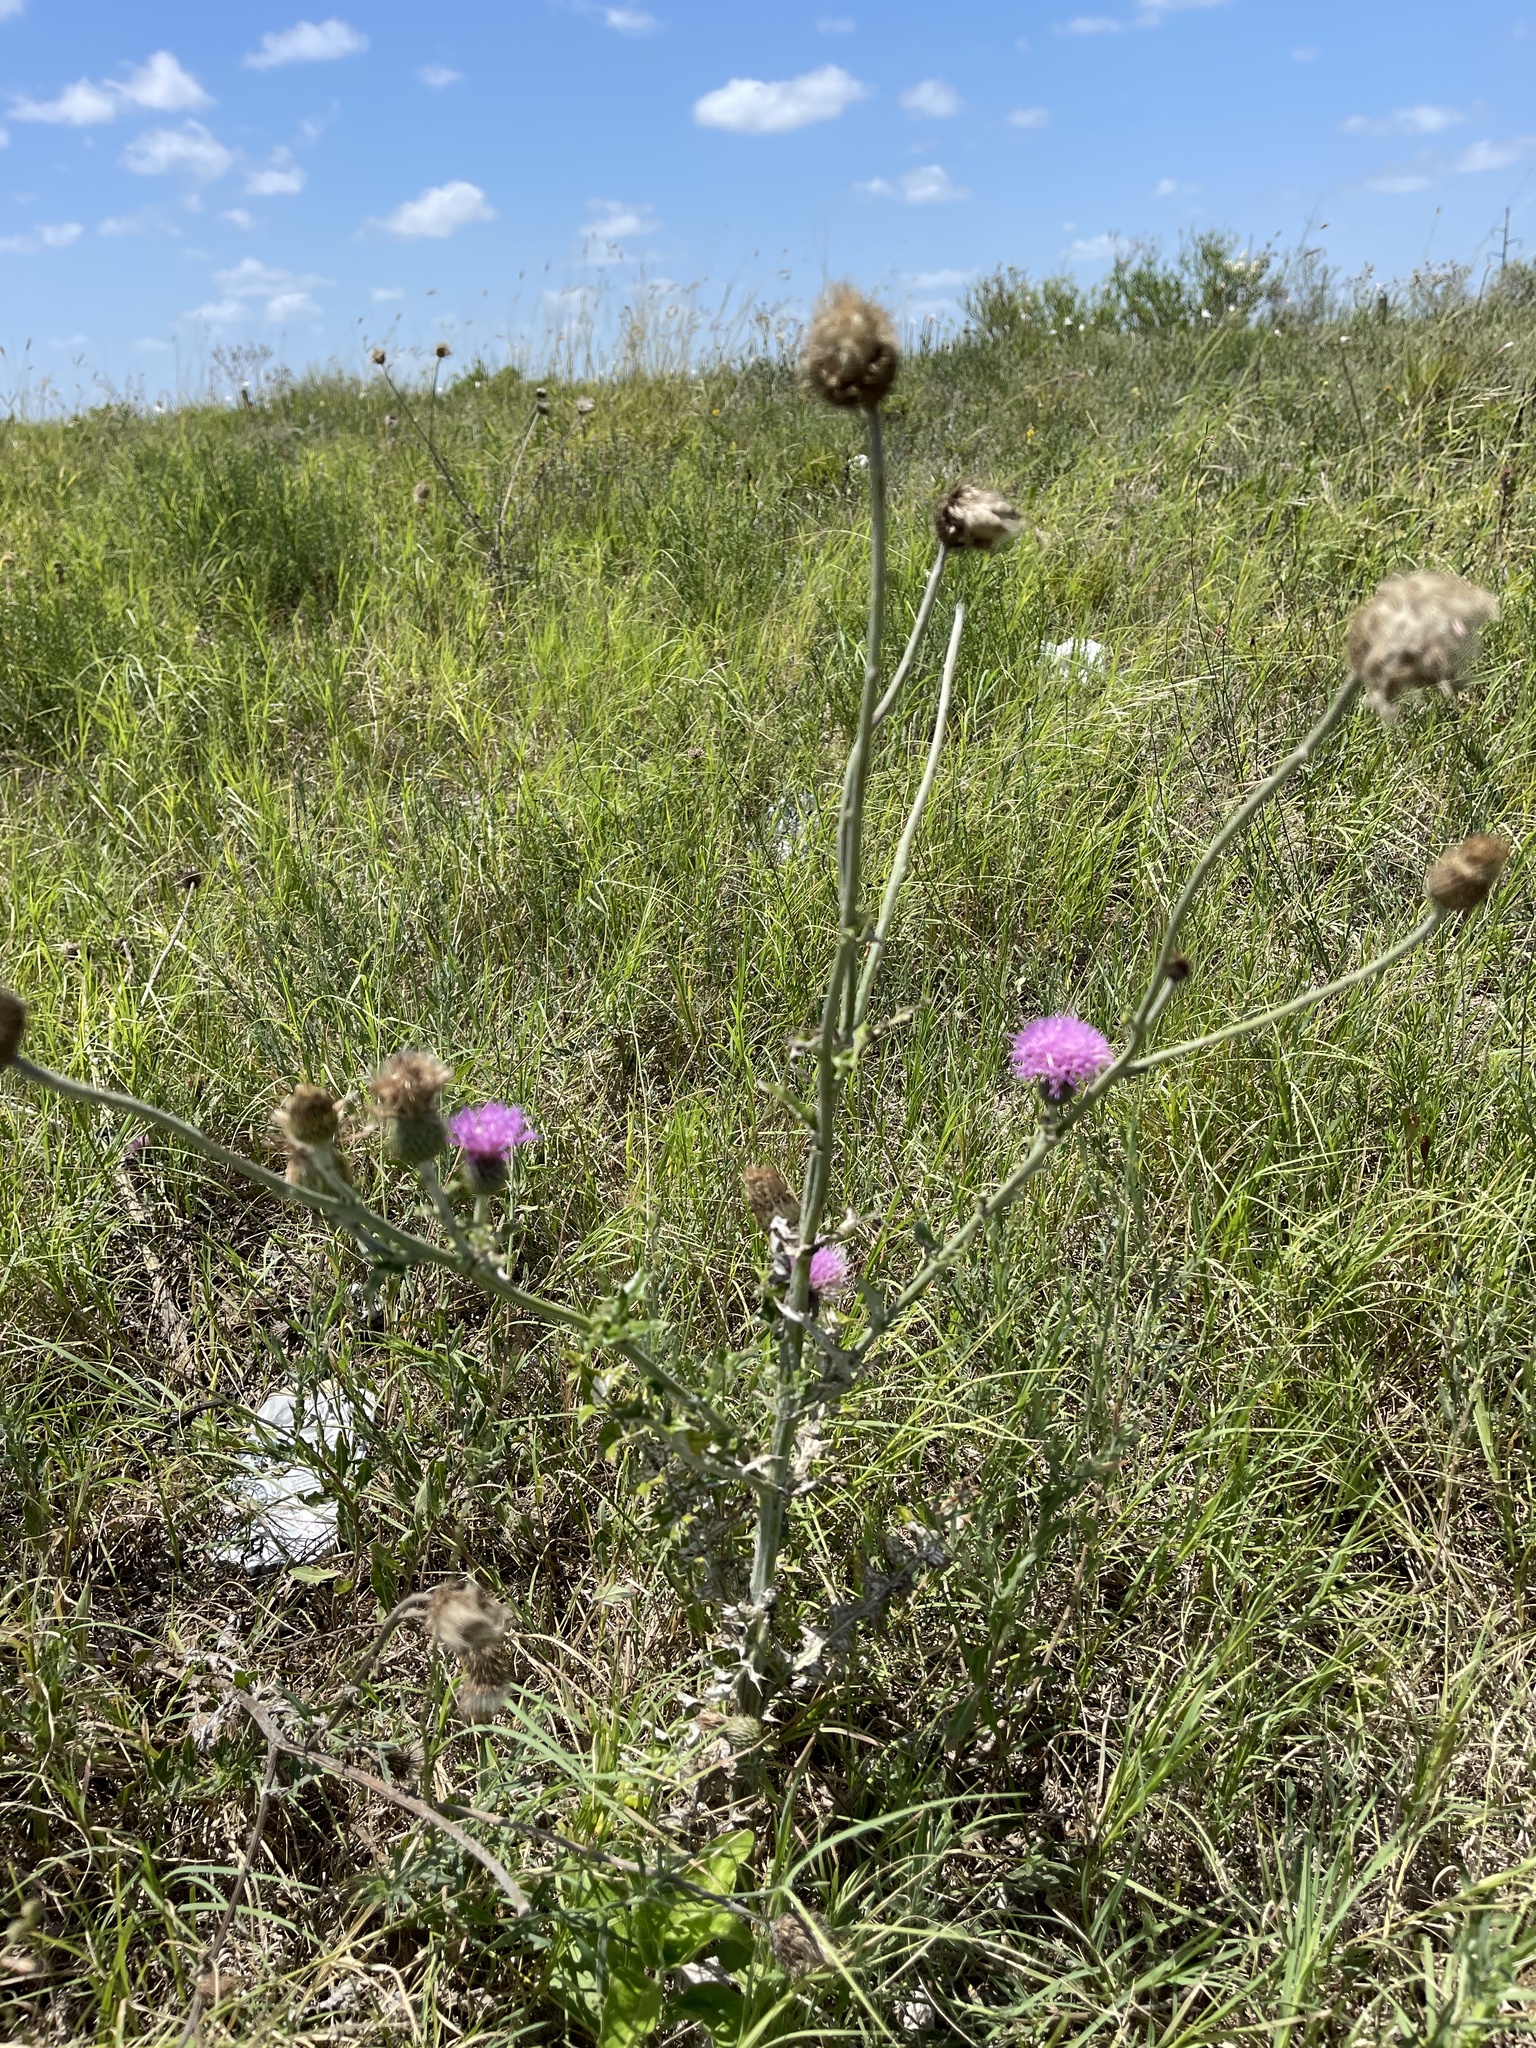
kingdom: Plantae
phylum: Tracheophyta
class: Magnoliopsida
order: Asterales
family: Asteraceae
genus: Cirsium
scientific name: Cirsium texanum
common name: Texas purple thistle
